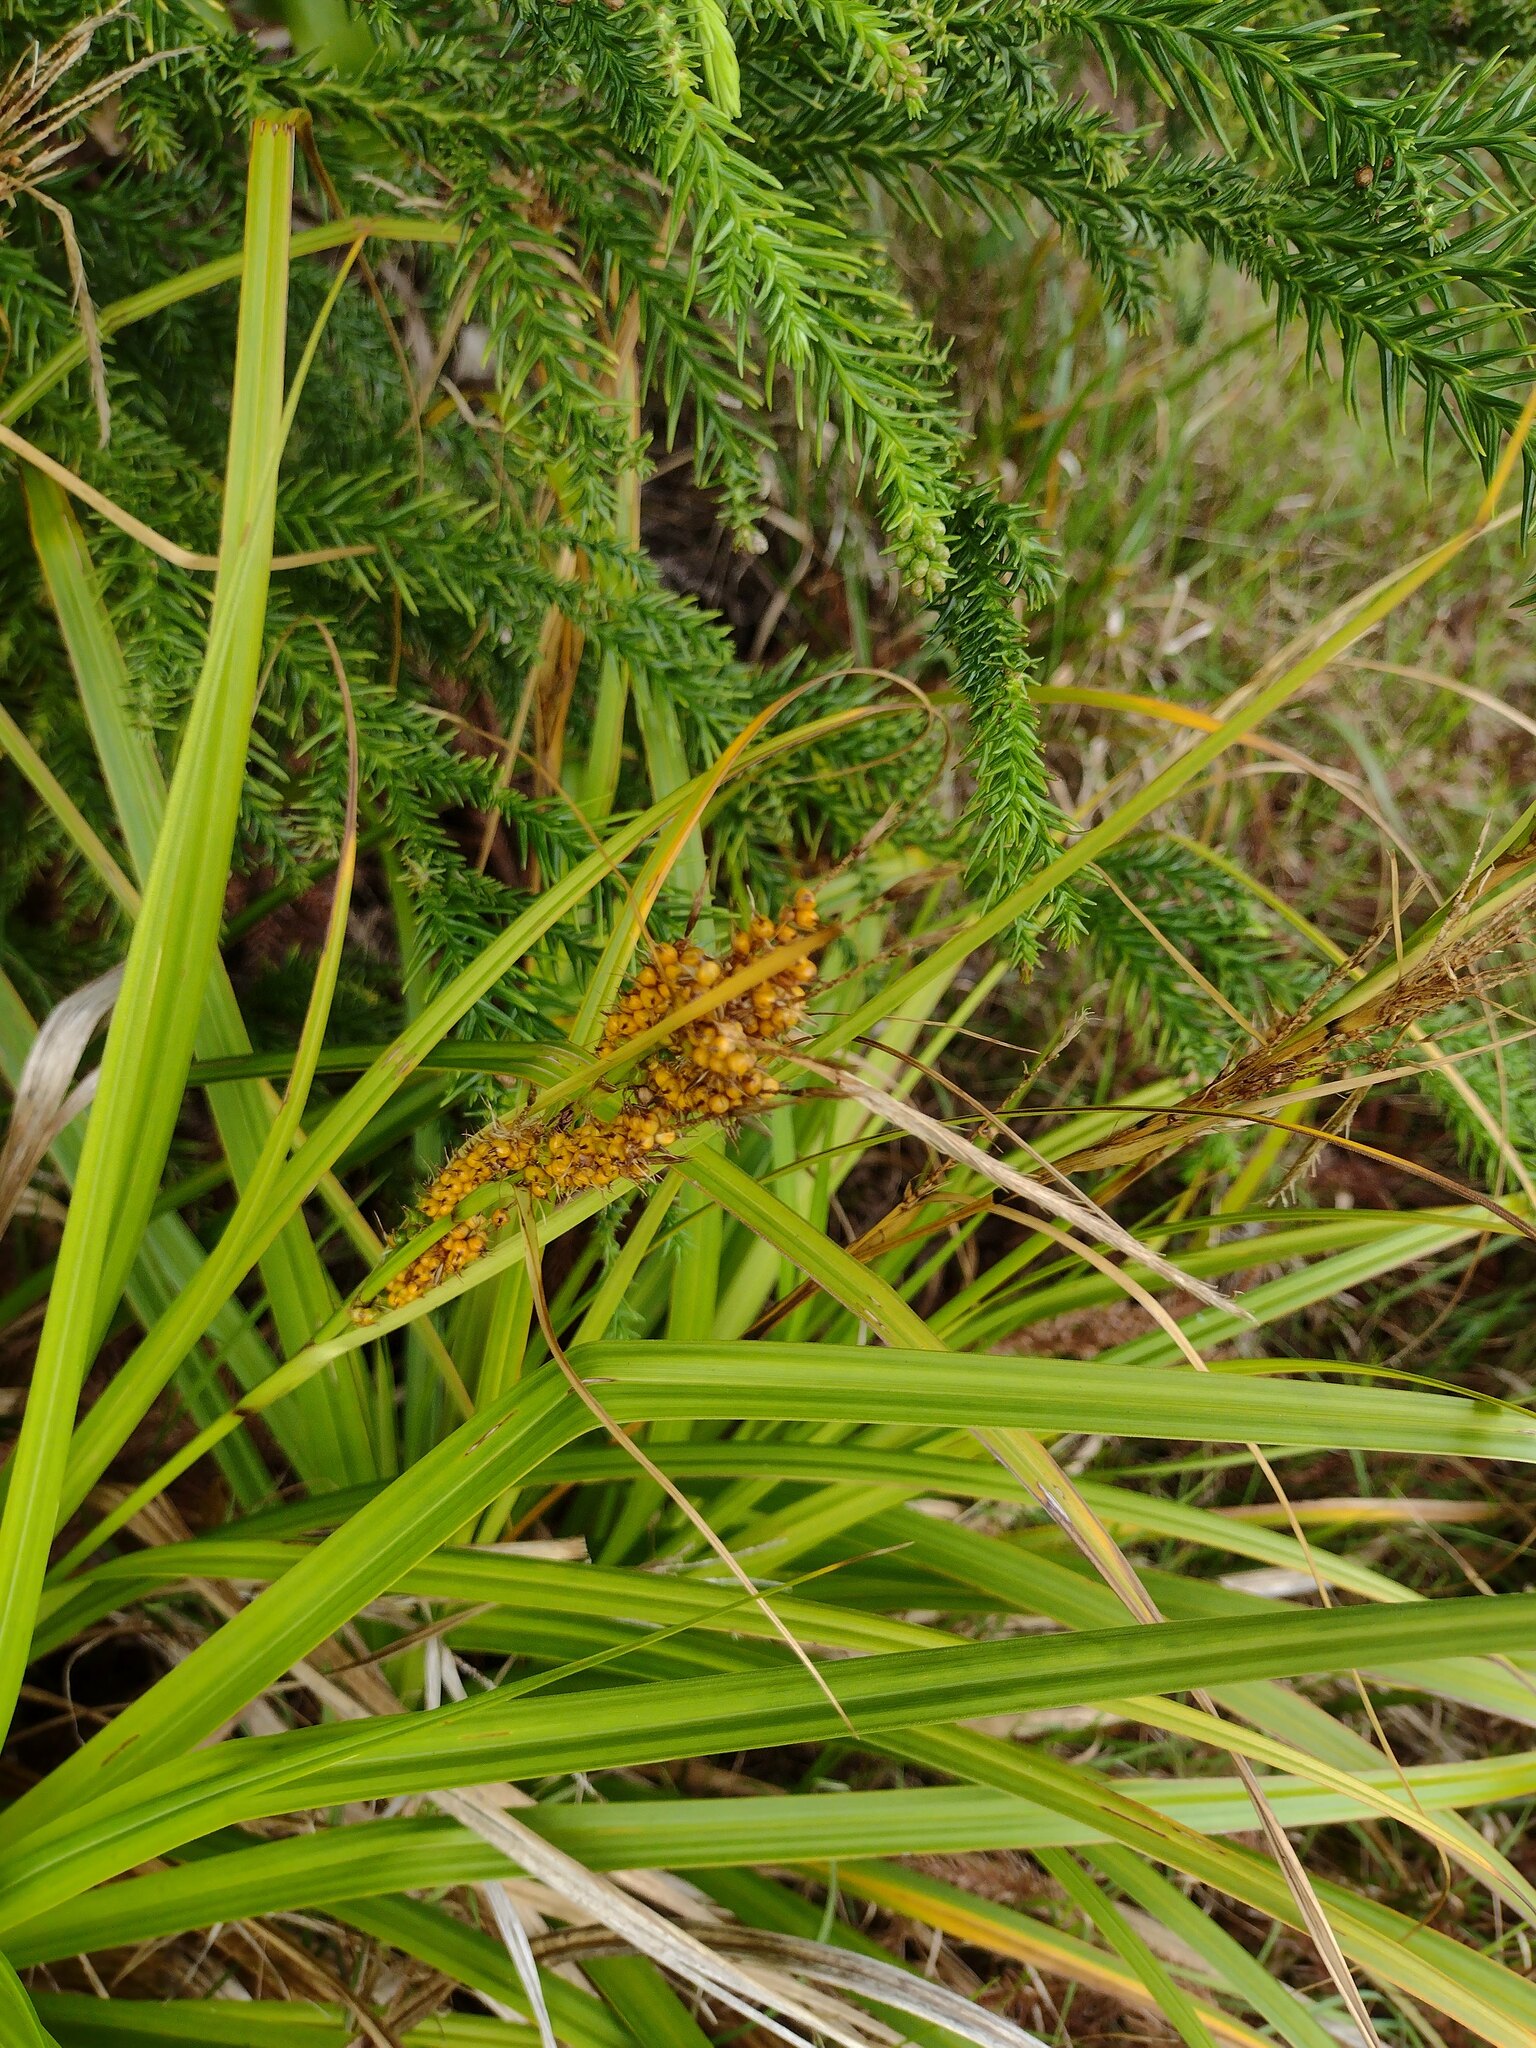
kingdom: Plantae
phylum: Tracheophyta
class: Liliopsida
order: Poales
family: Cyperaceae
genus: Carex
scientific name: Carex wahuensis
